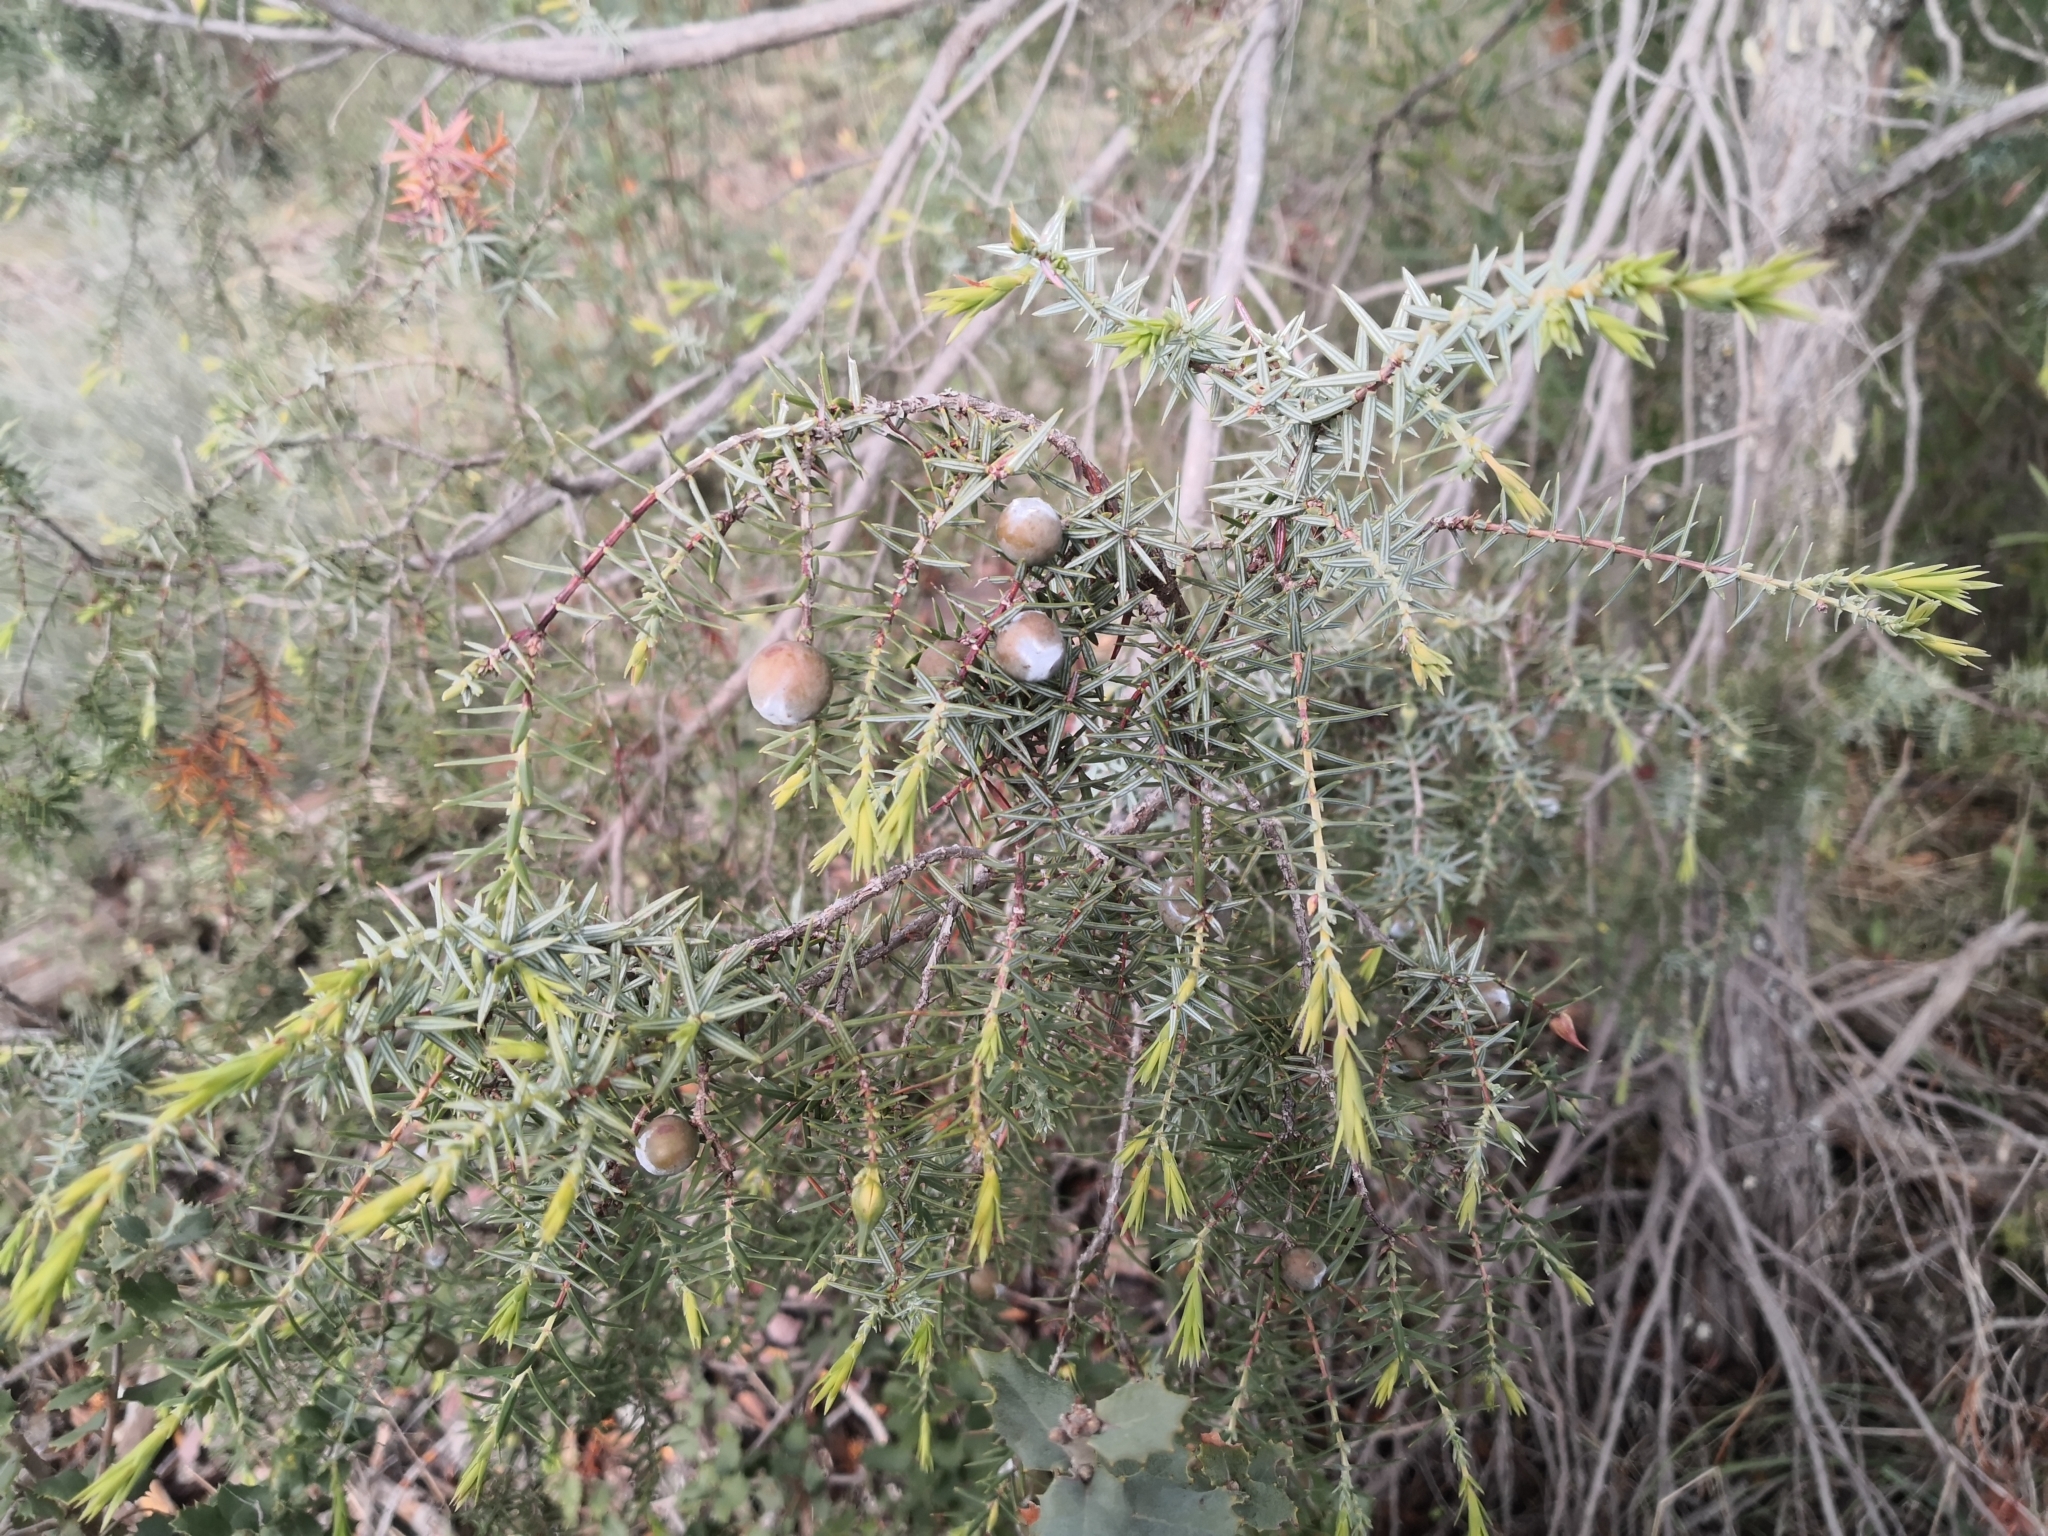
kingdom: Plantae
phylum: Tracheophyta
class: Pinopsida
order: Pinales
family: Cupressaceae
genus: Juniperus
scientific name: Juniperus oxycedrus
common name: Prickly juniper
